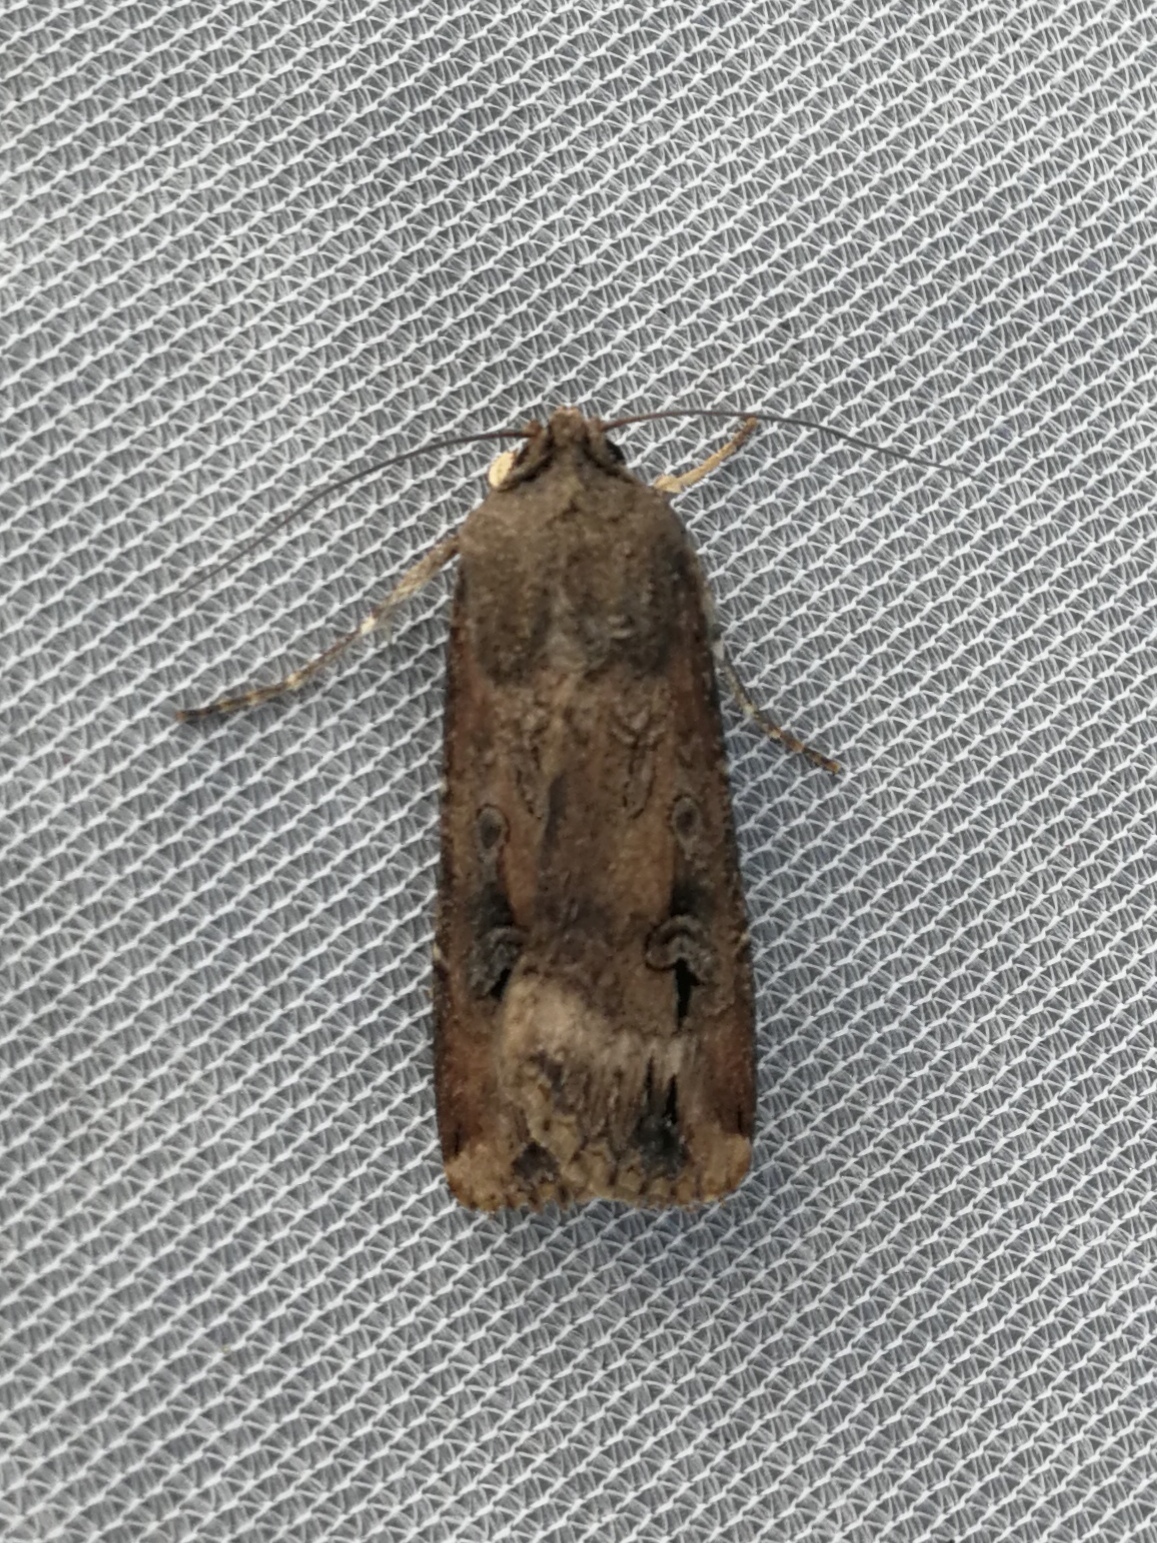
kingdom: Animalia
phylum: Arthropoda
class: Insecta
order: Lepidoptera
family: Noctuidae
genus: Agrotis
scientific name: Agrotis ipsilon
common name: Dark sword-grass
